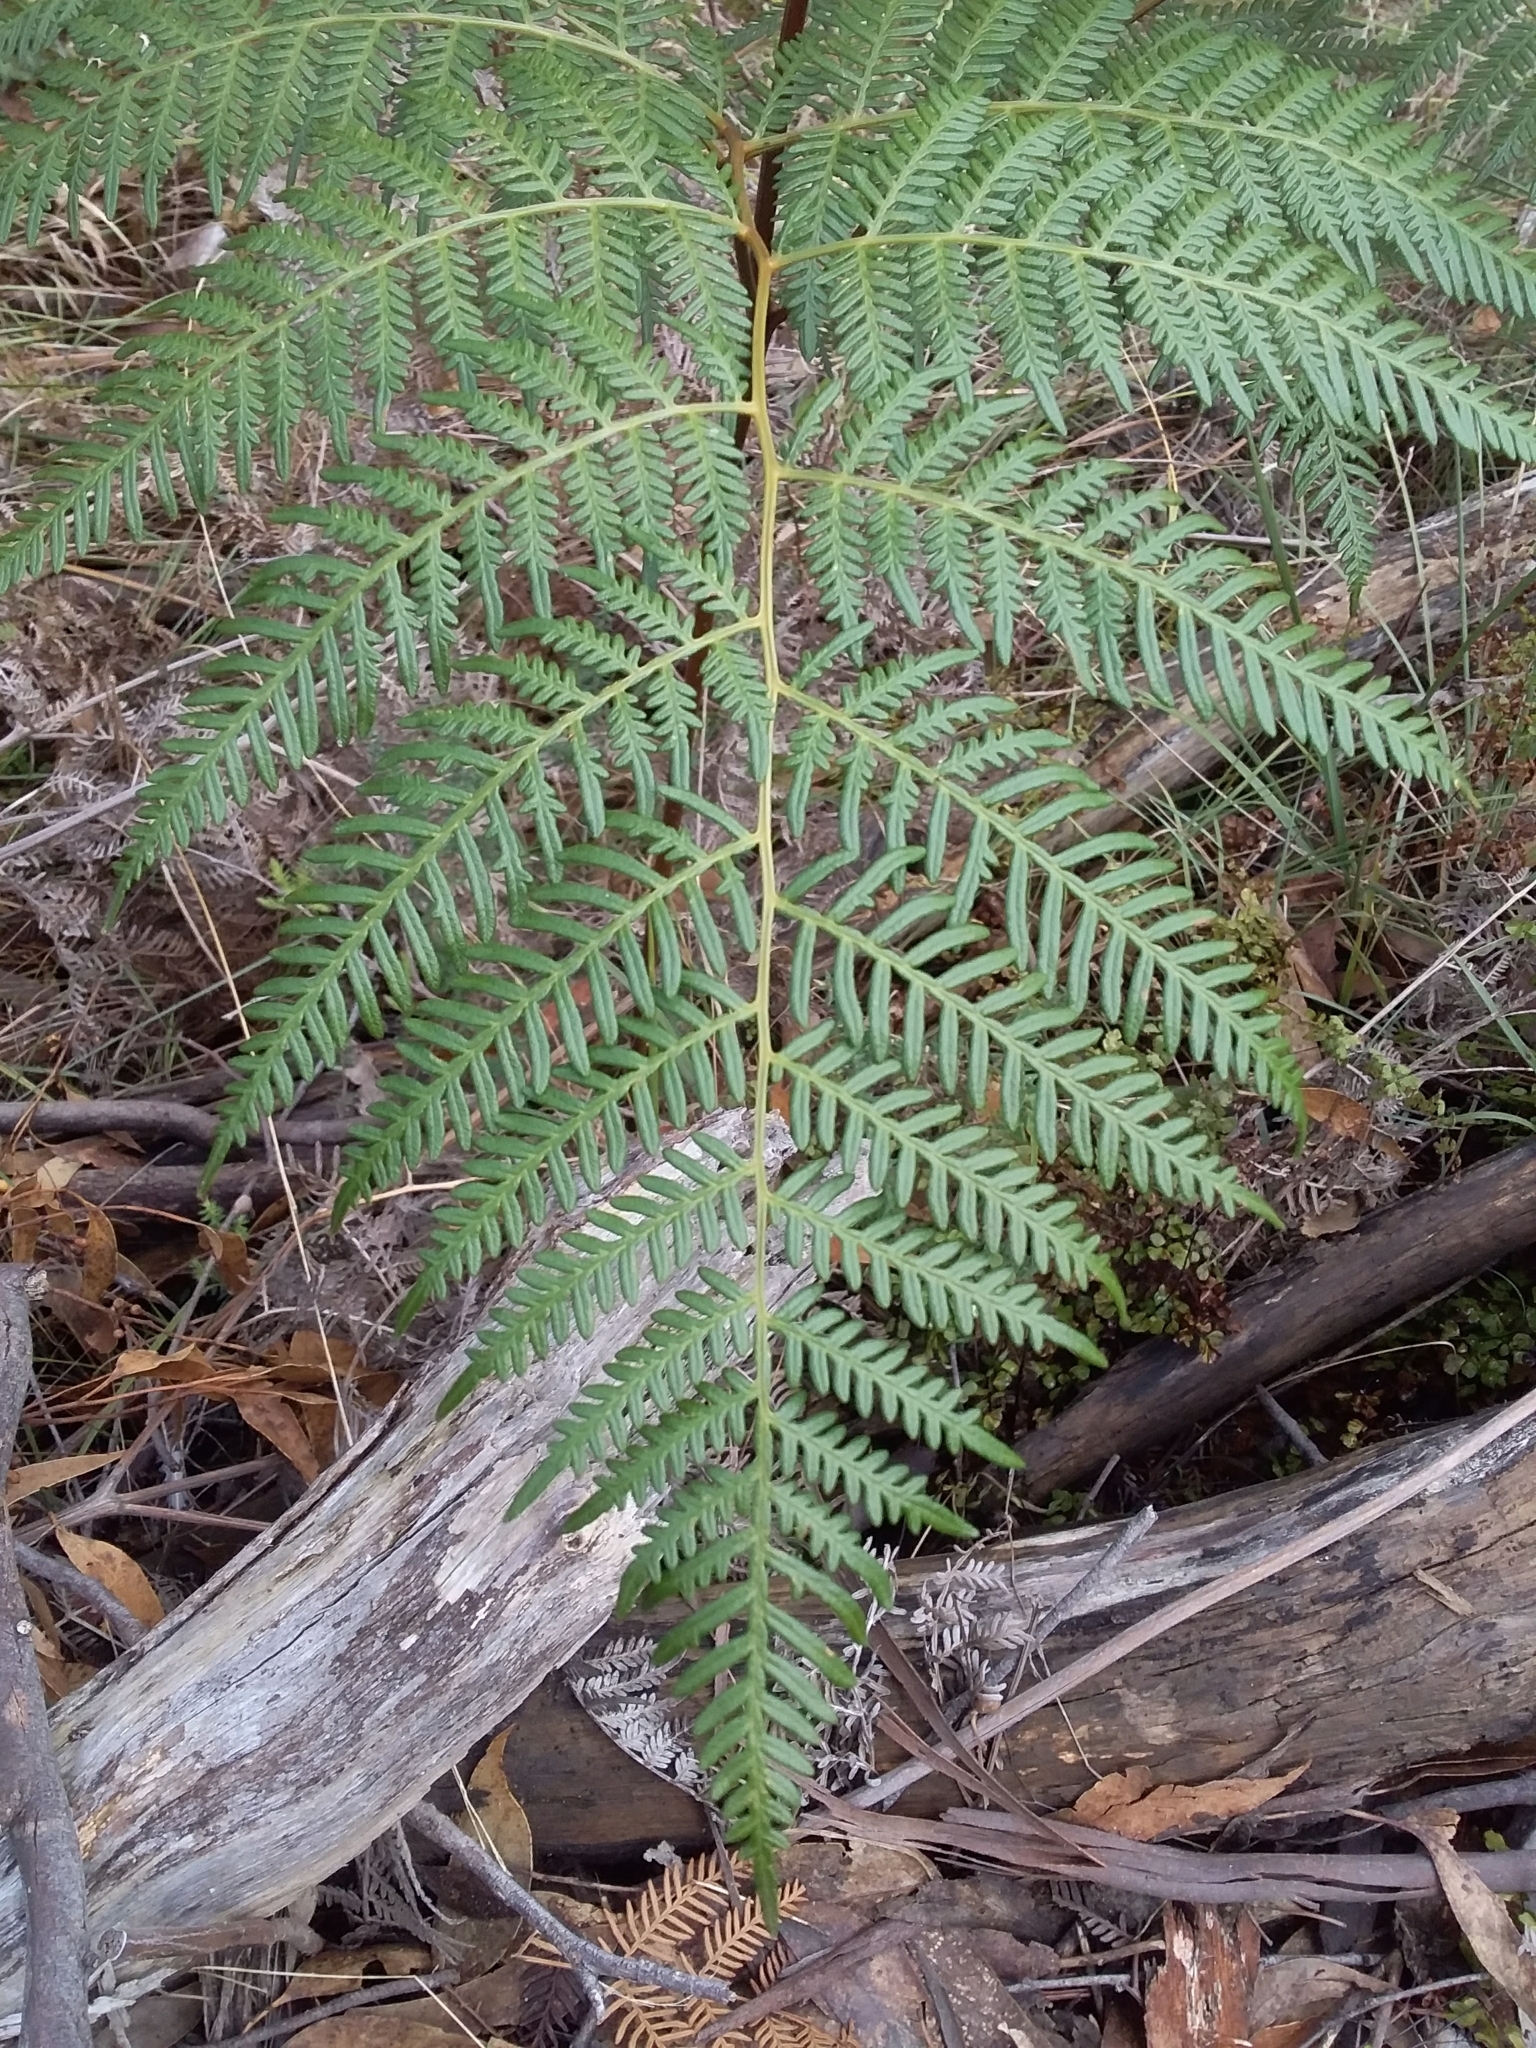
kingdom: Plantae
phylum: Tracheophyta
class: Polypodiopsida
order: Polypodiales
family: Dennstaedtiaceae
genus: Pteridium
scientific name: Pteridium esculentum
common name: Bracken fern
